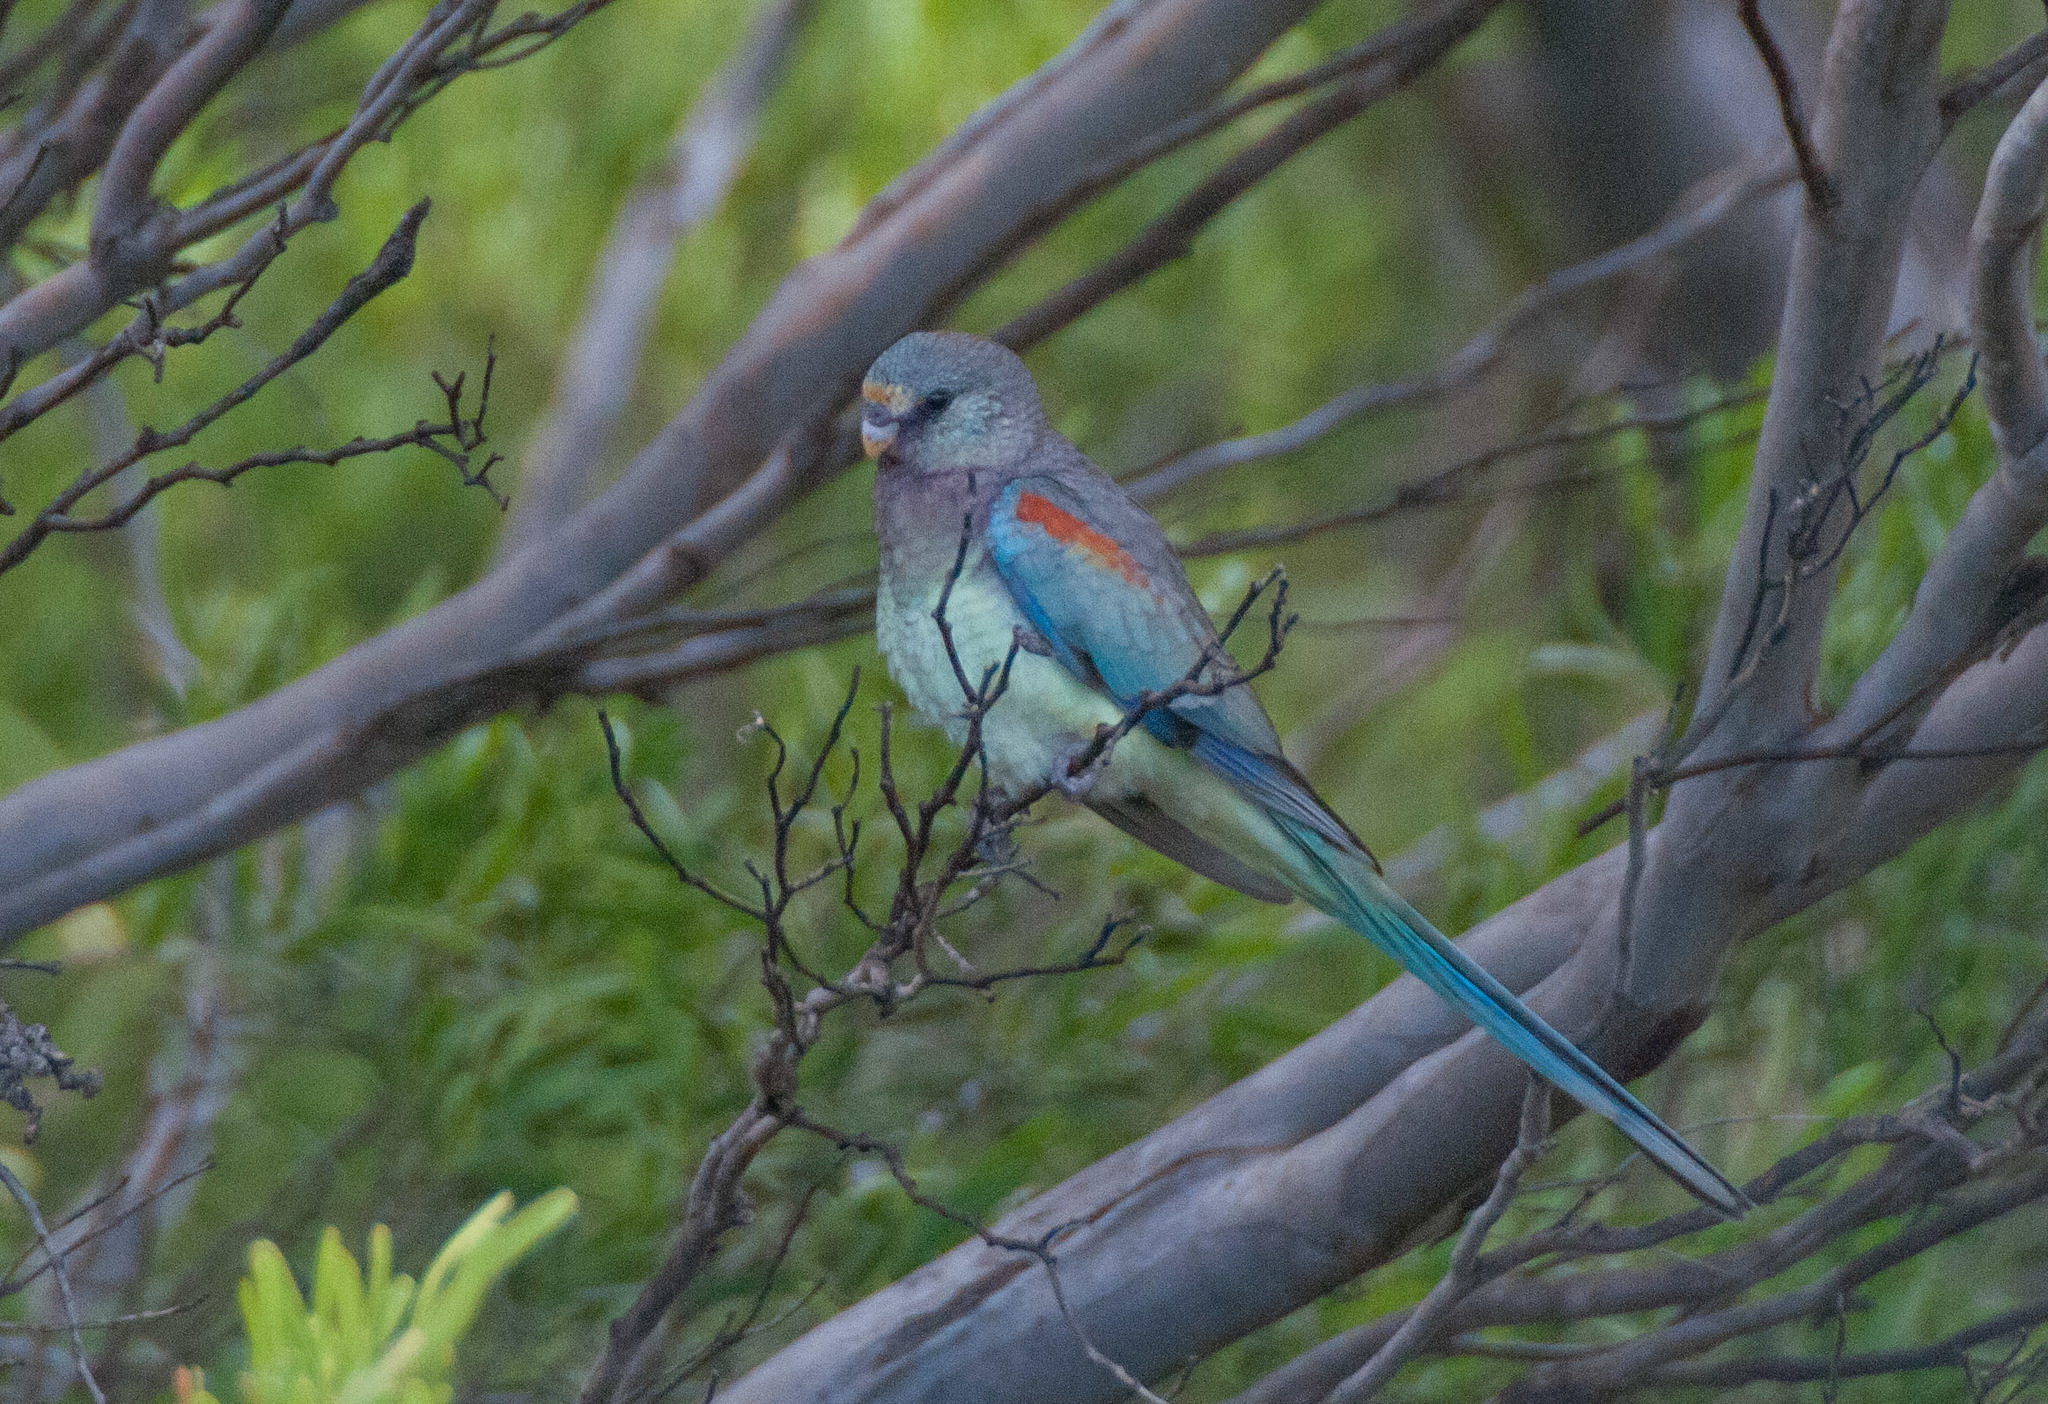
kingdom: Animalia
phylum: Chordata
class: Aves
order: Psittaciformes
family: Psittaculidae
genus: Psephotellus
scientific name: Psephotellus varius
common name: Mulga parrot
